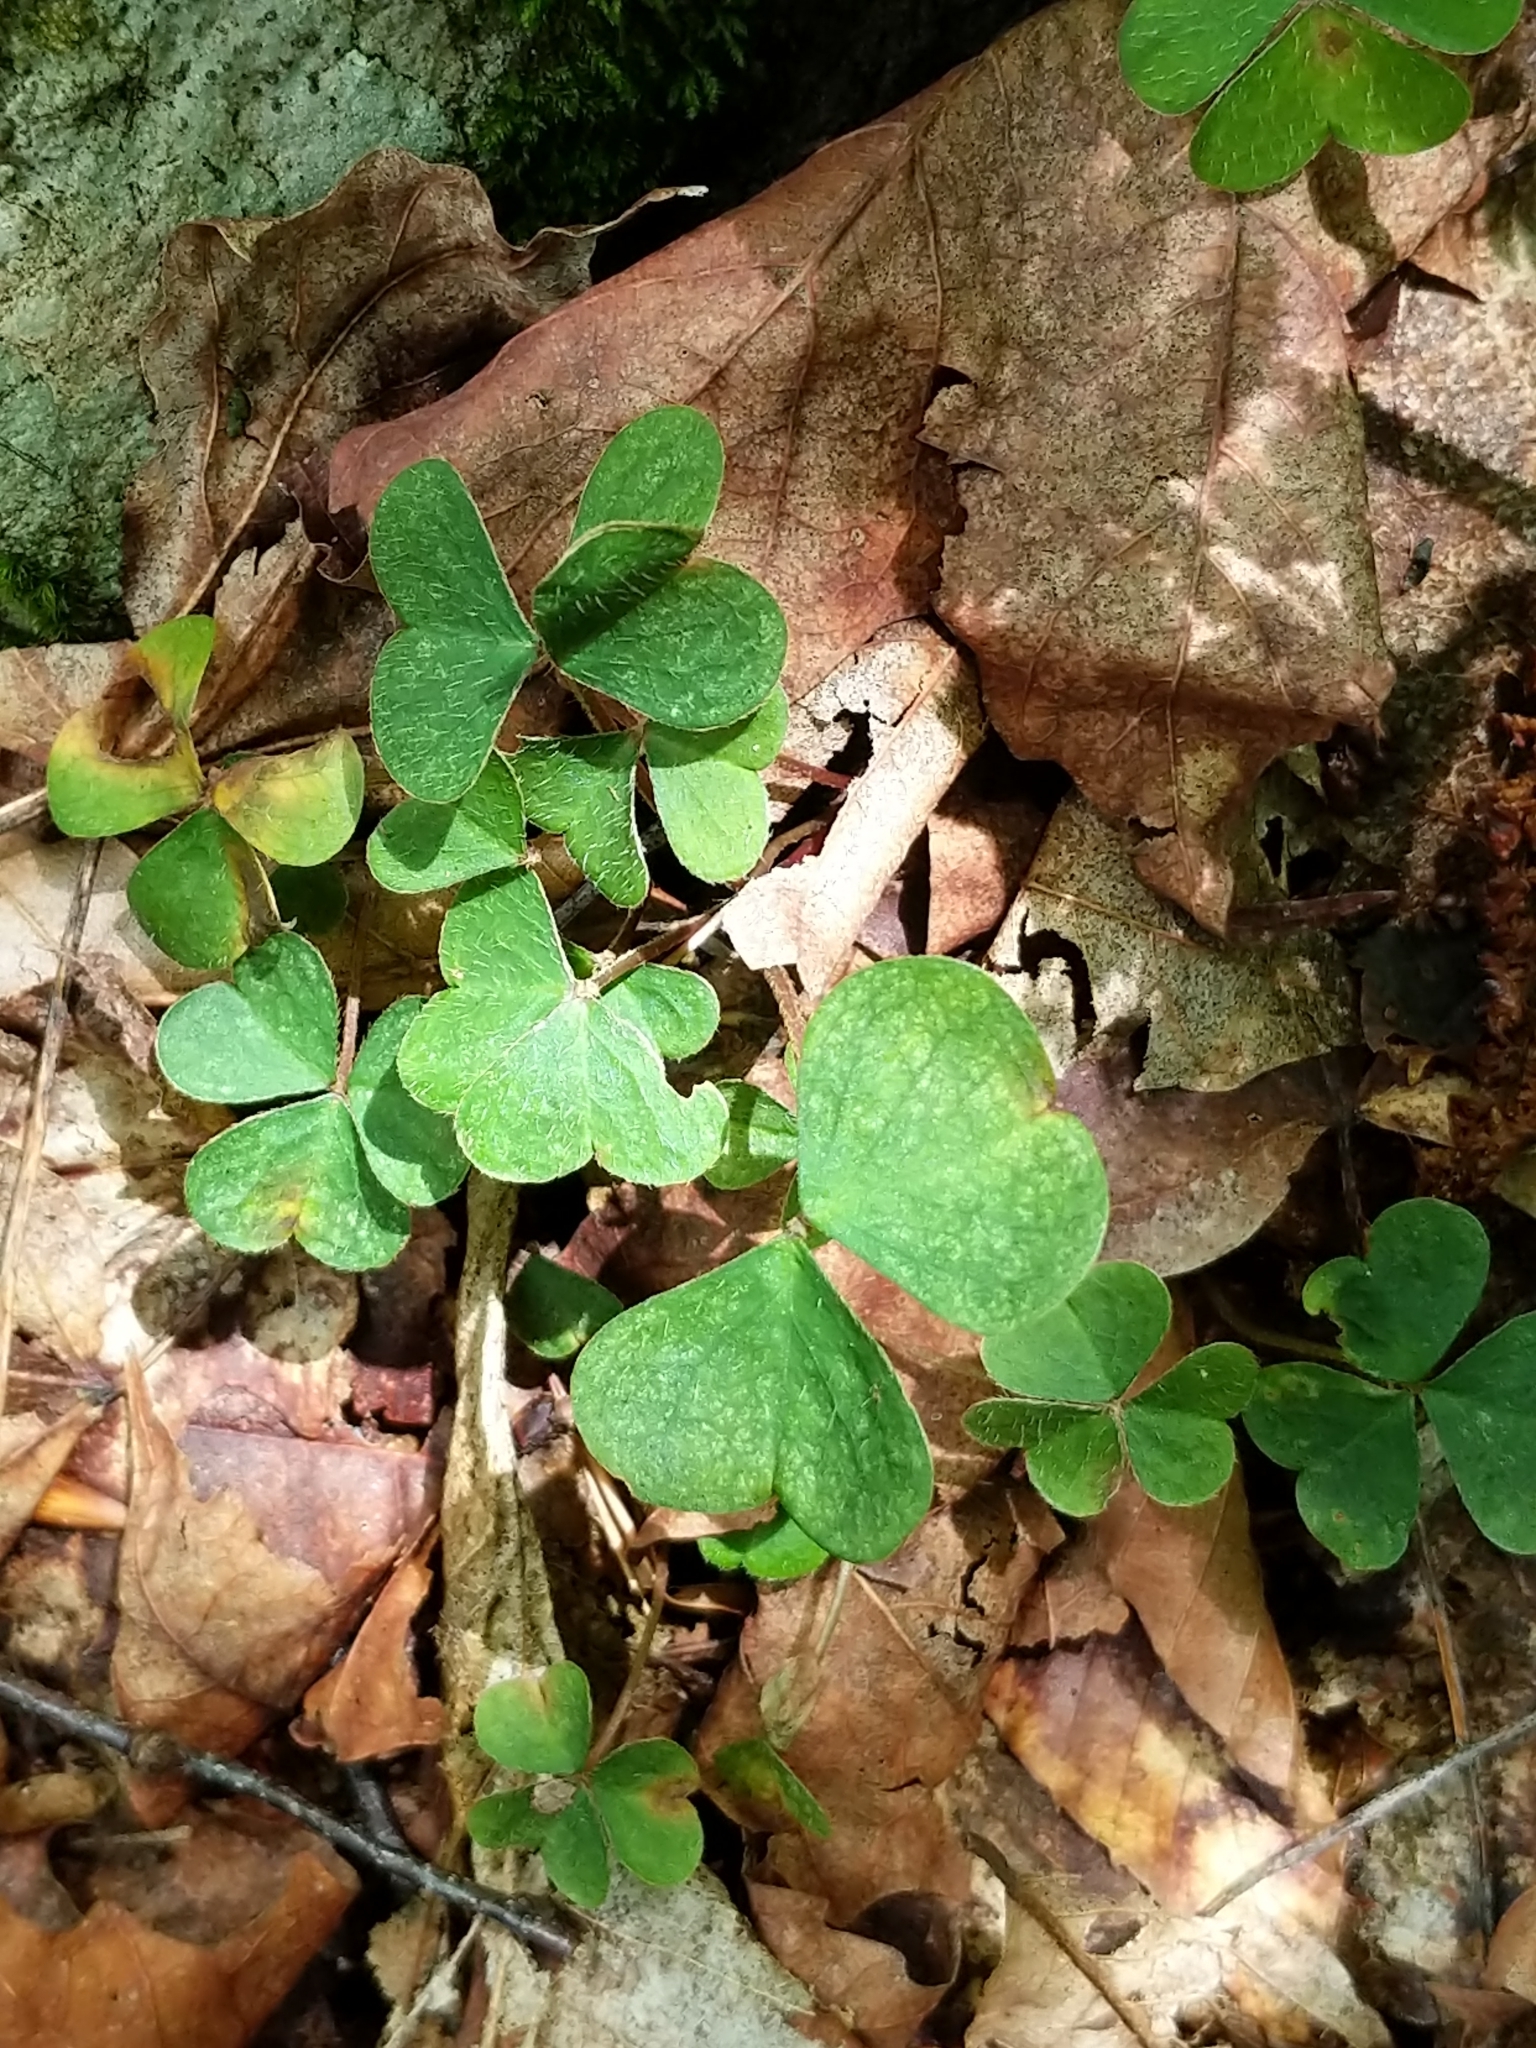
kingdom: Plantae
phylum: Tracheophyta
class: Magnoliopsida
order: Oxalidales
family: Oxalidaceae
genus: Oxalis
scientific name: Oxalis montana
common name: American wood-sorrel
